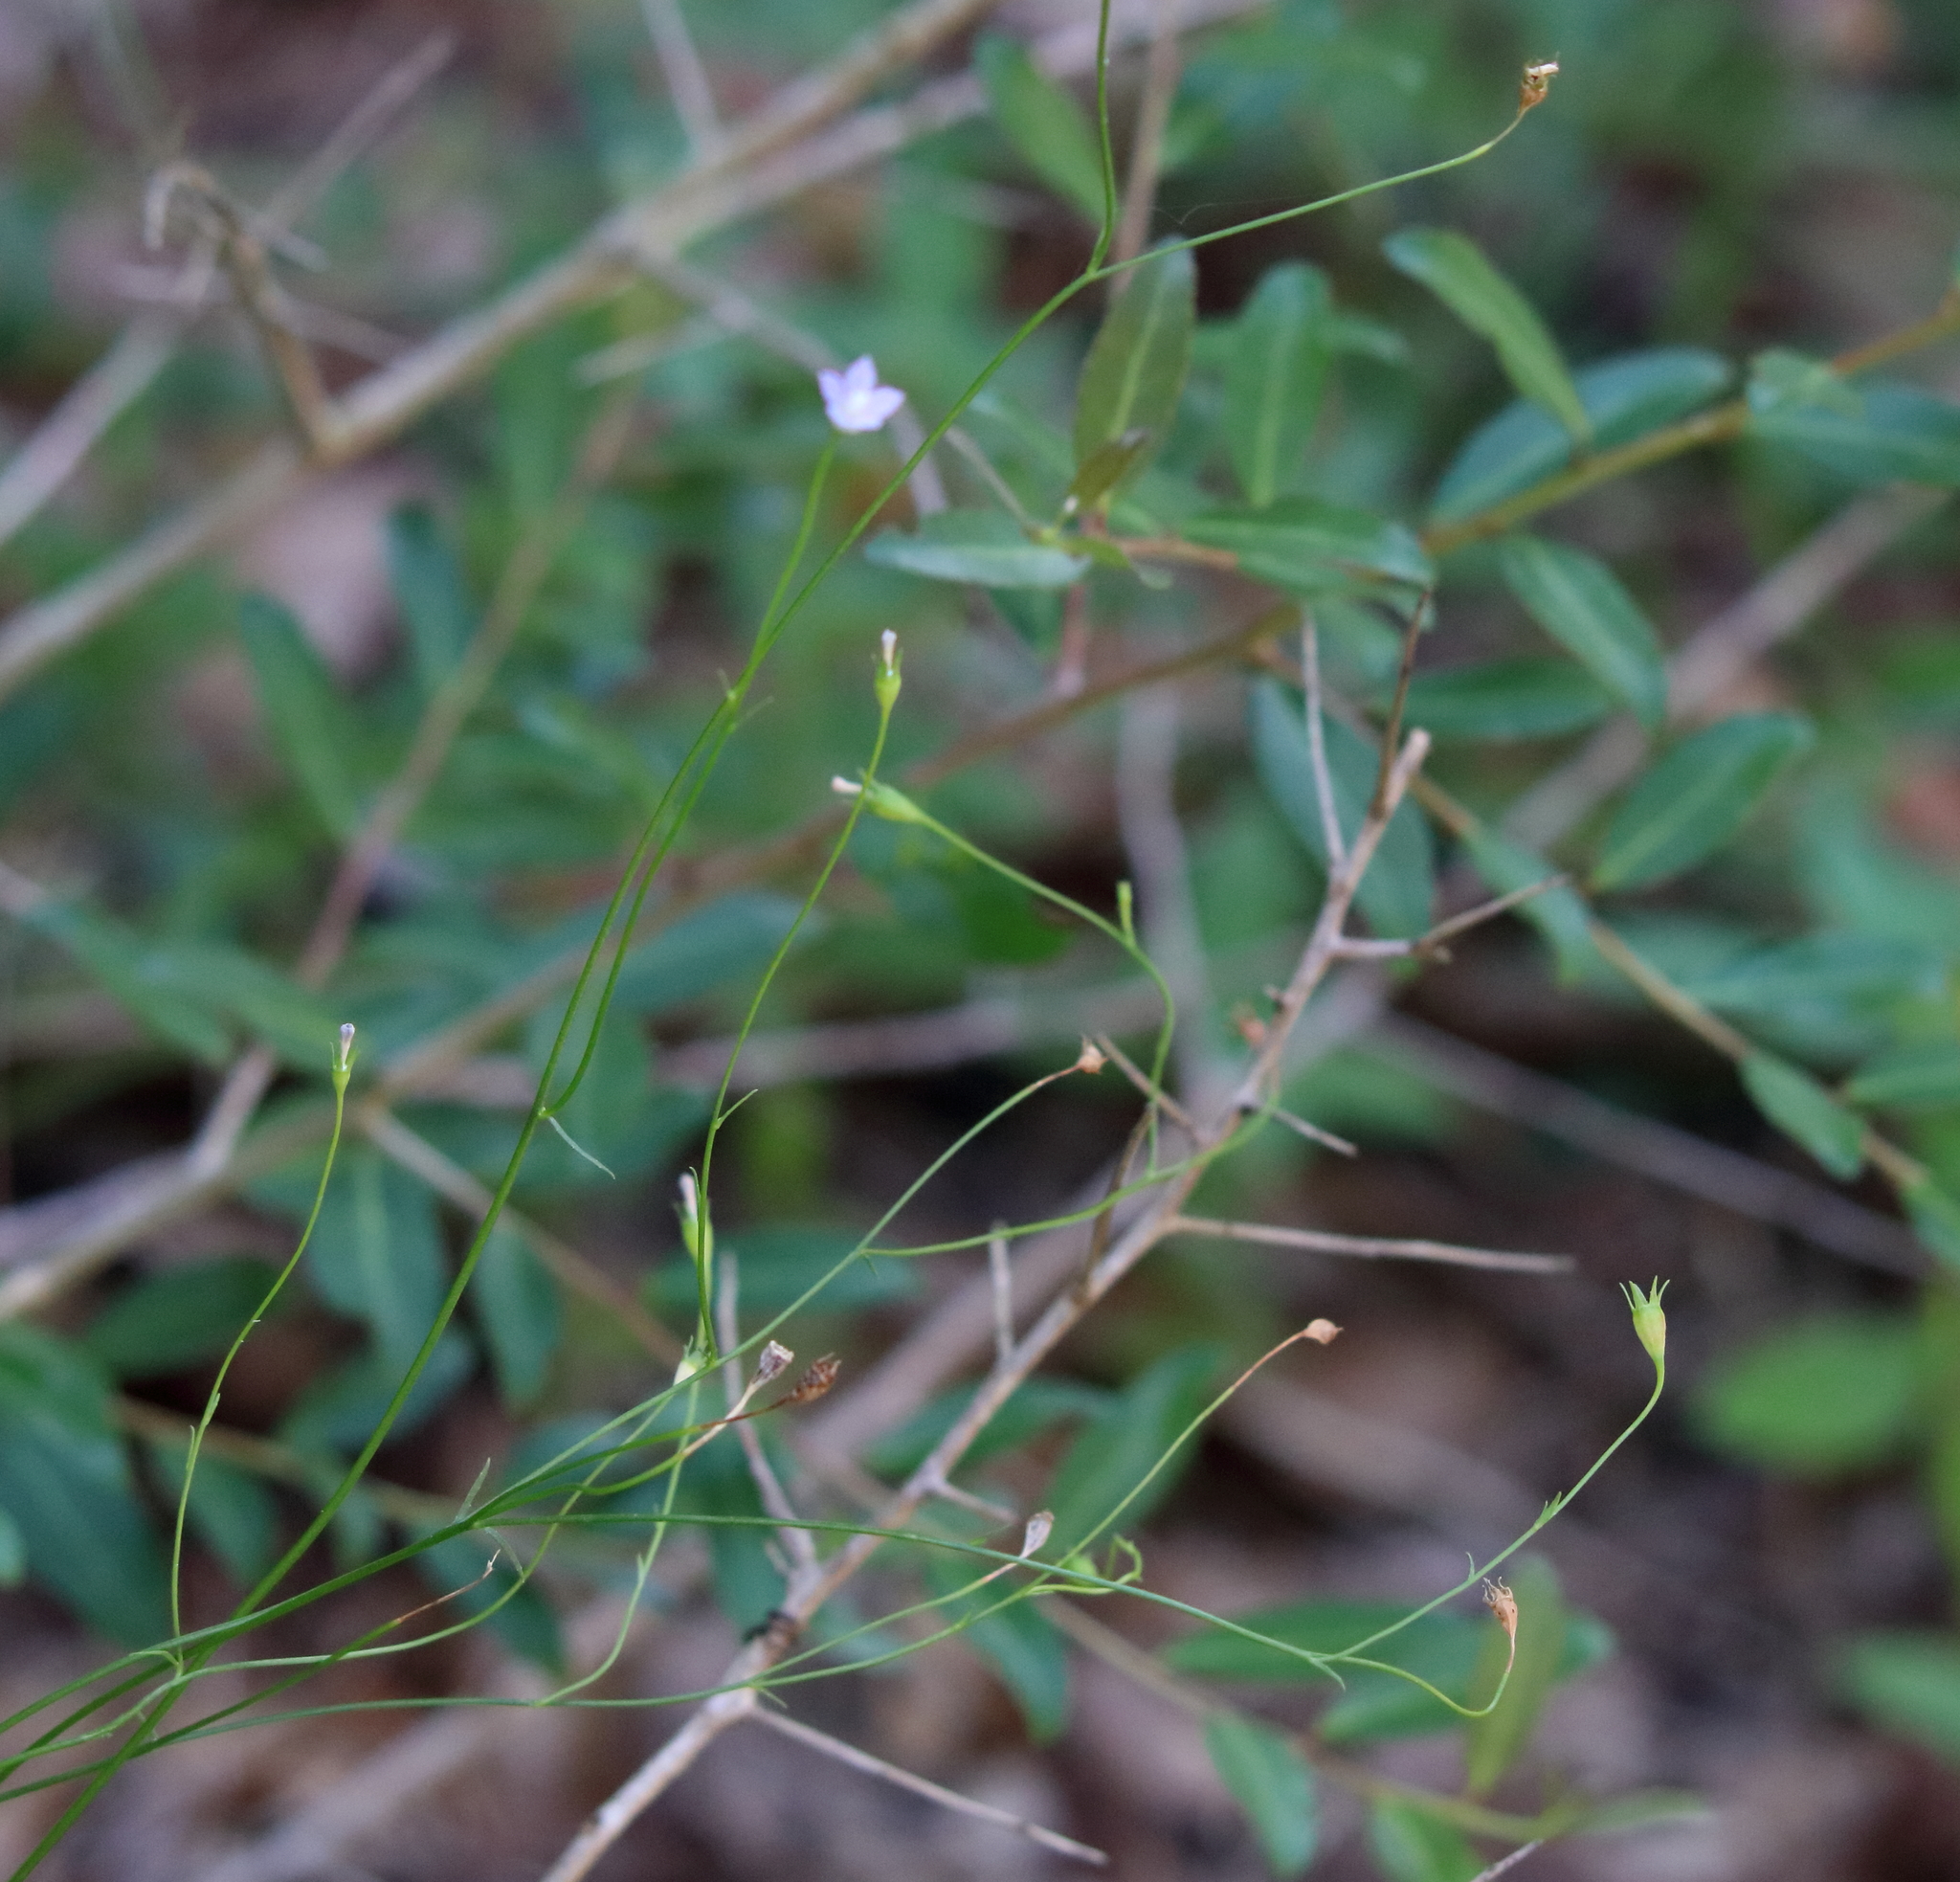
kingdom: Plantae
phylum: Tracheophyta
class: Magnoliopsida
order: Asterales
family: Campanulaceae
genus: Wahlenbergia
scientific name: Wahlenbergia marginata
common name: Southern rockbell
